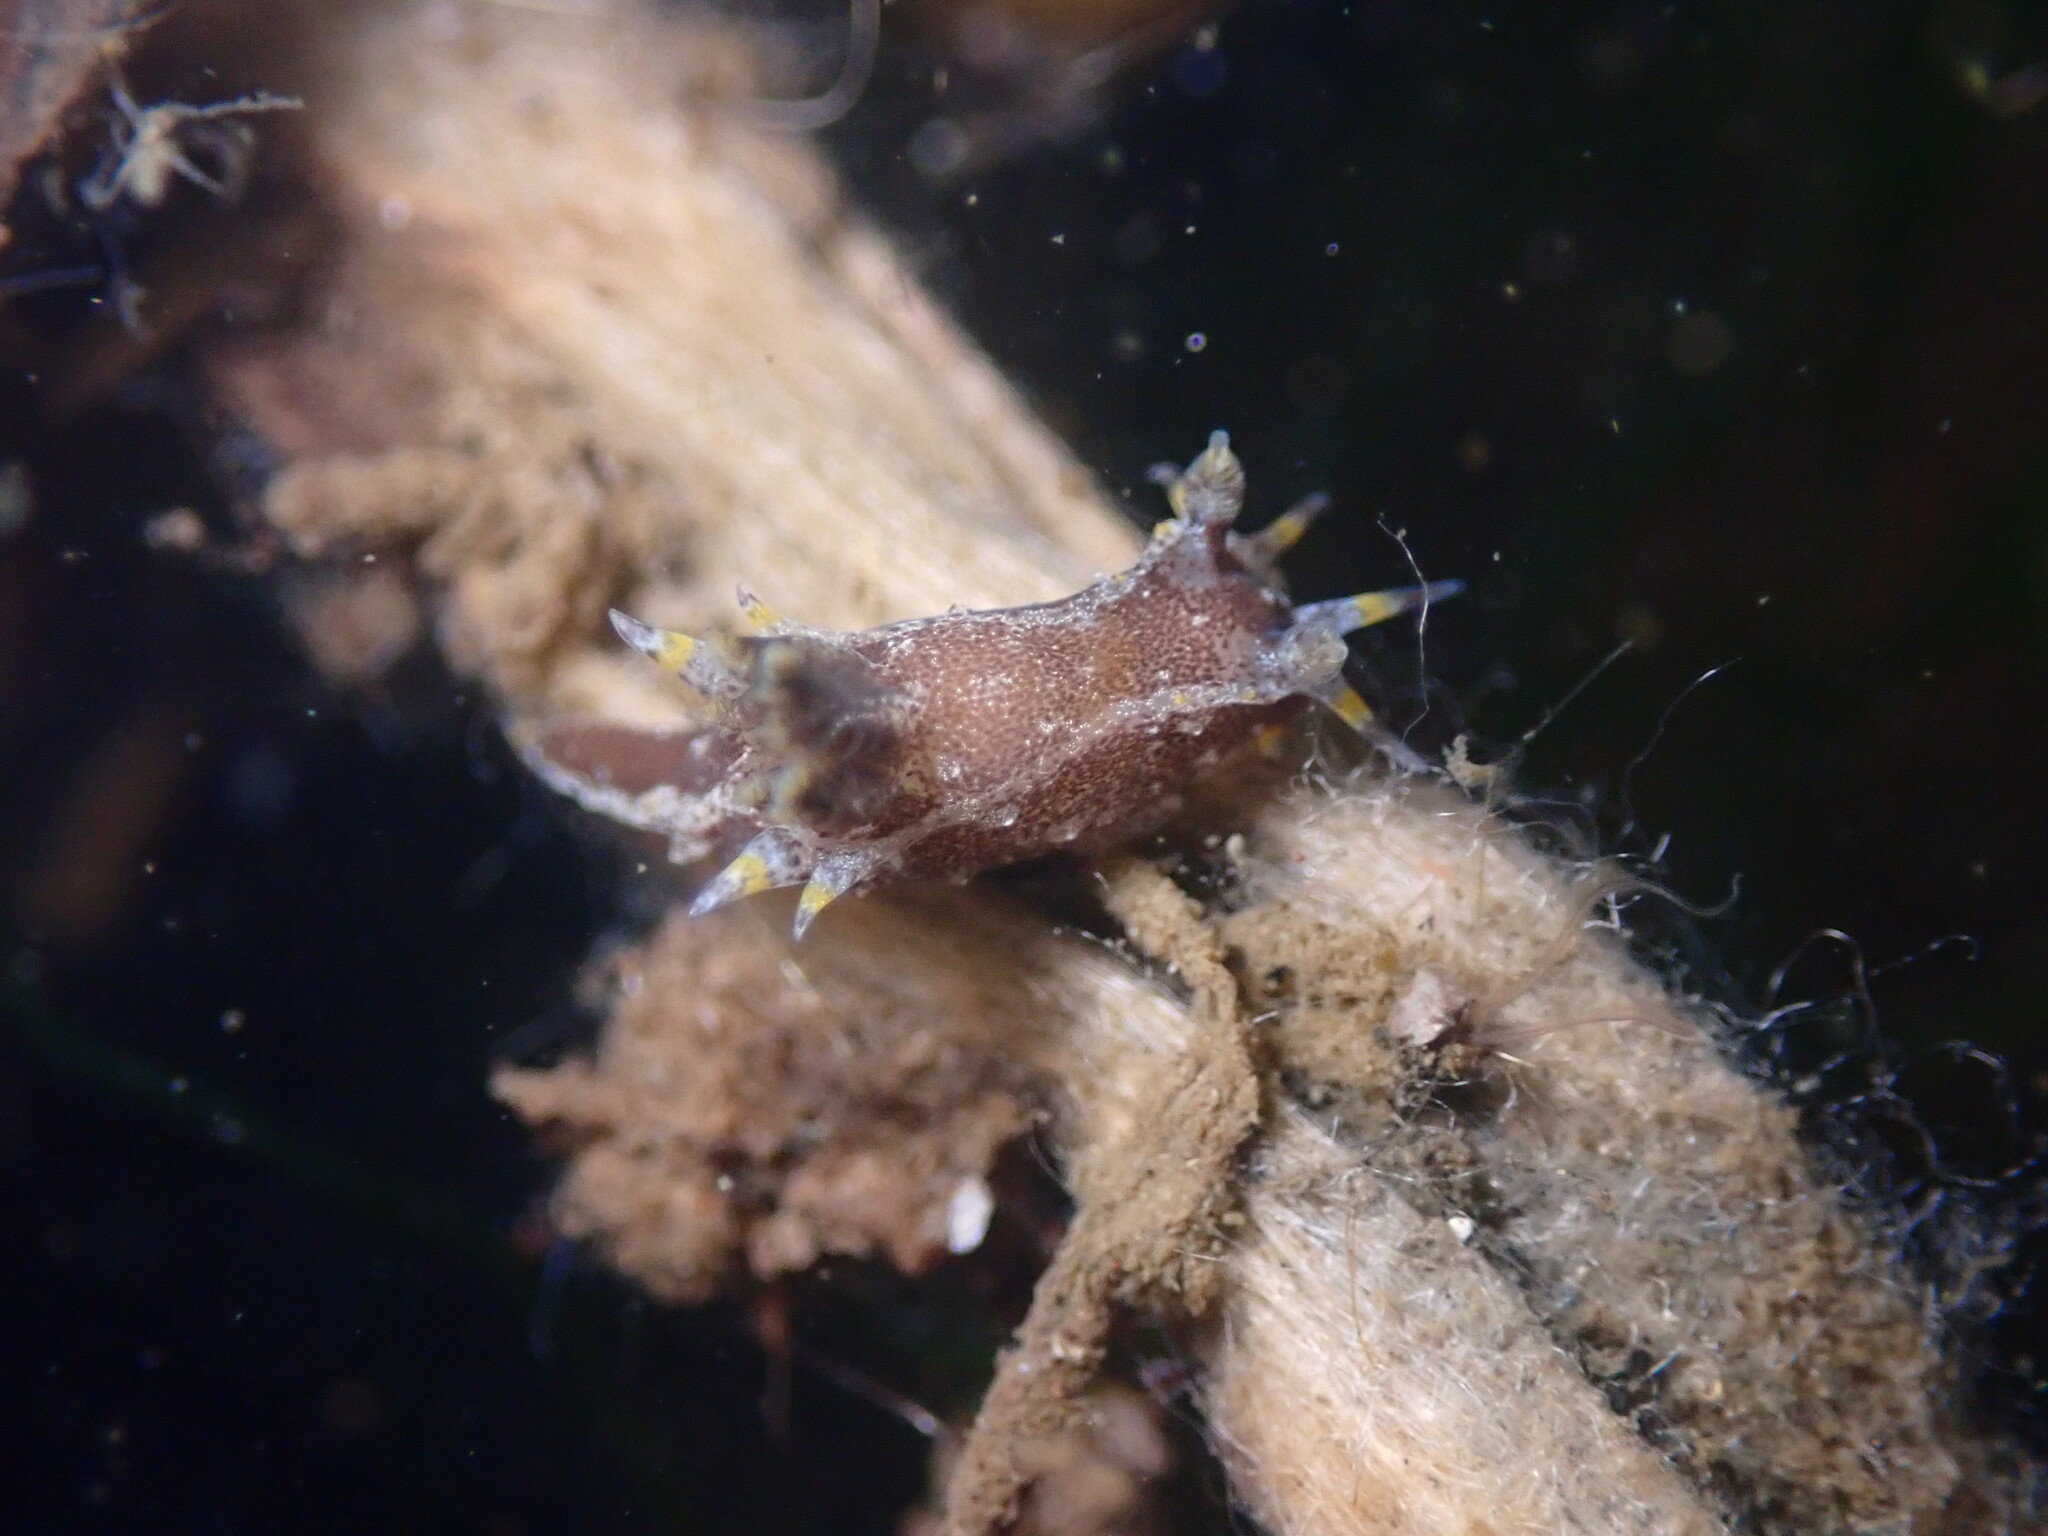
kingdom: Animalia
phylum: Mollusca
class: Gastropoda
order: Nudibranchia
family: Polyceridae
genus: Polycera
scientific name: Polycera hedgpethi
